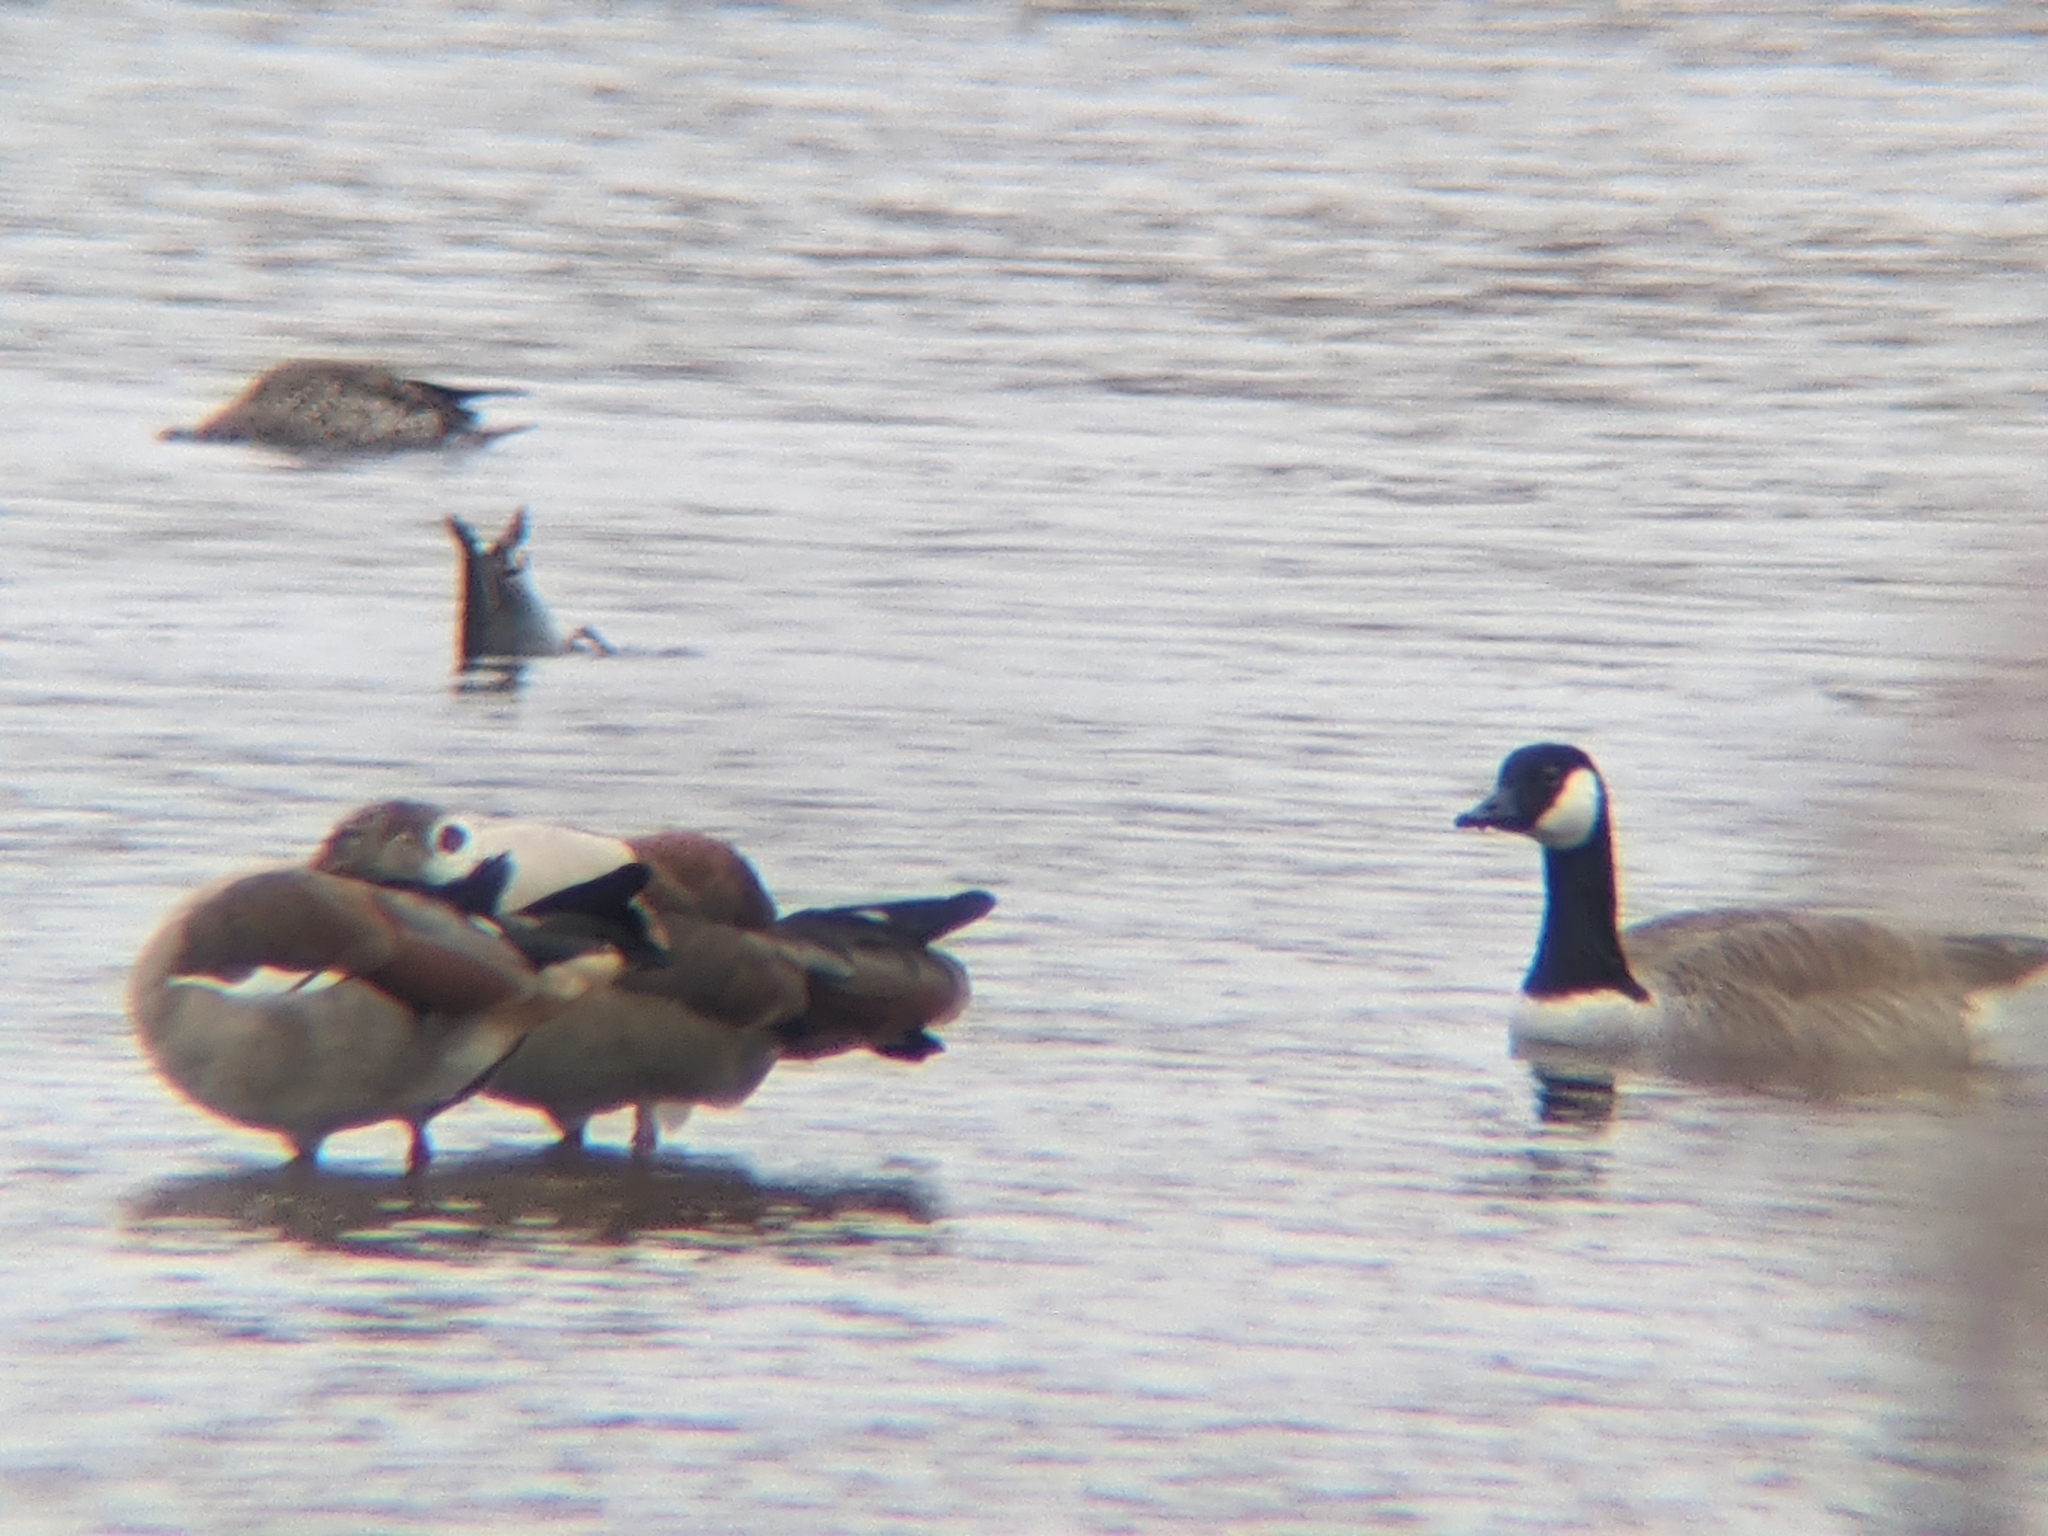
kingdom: Animalia
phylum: Chordata
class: Aves
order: Anseriformes
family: Anatidae
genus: Alopochen
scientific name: Alopochen aegyptiaca
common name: Egyptian goose
